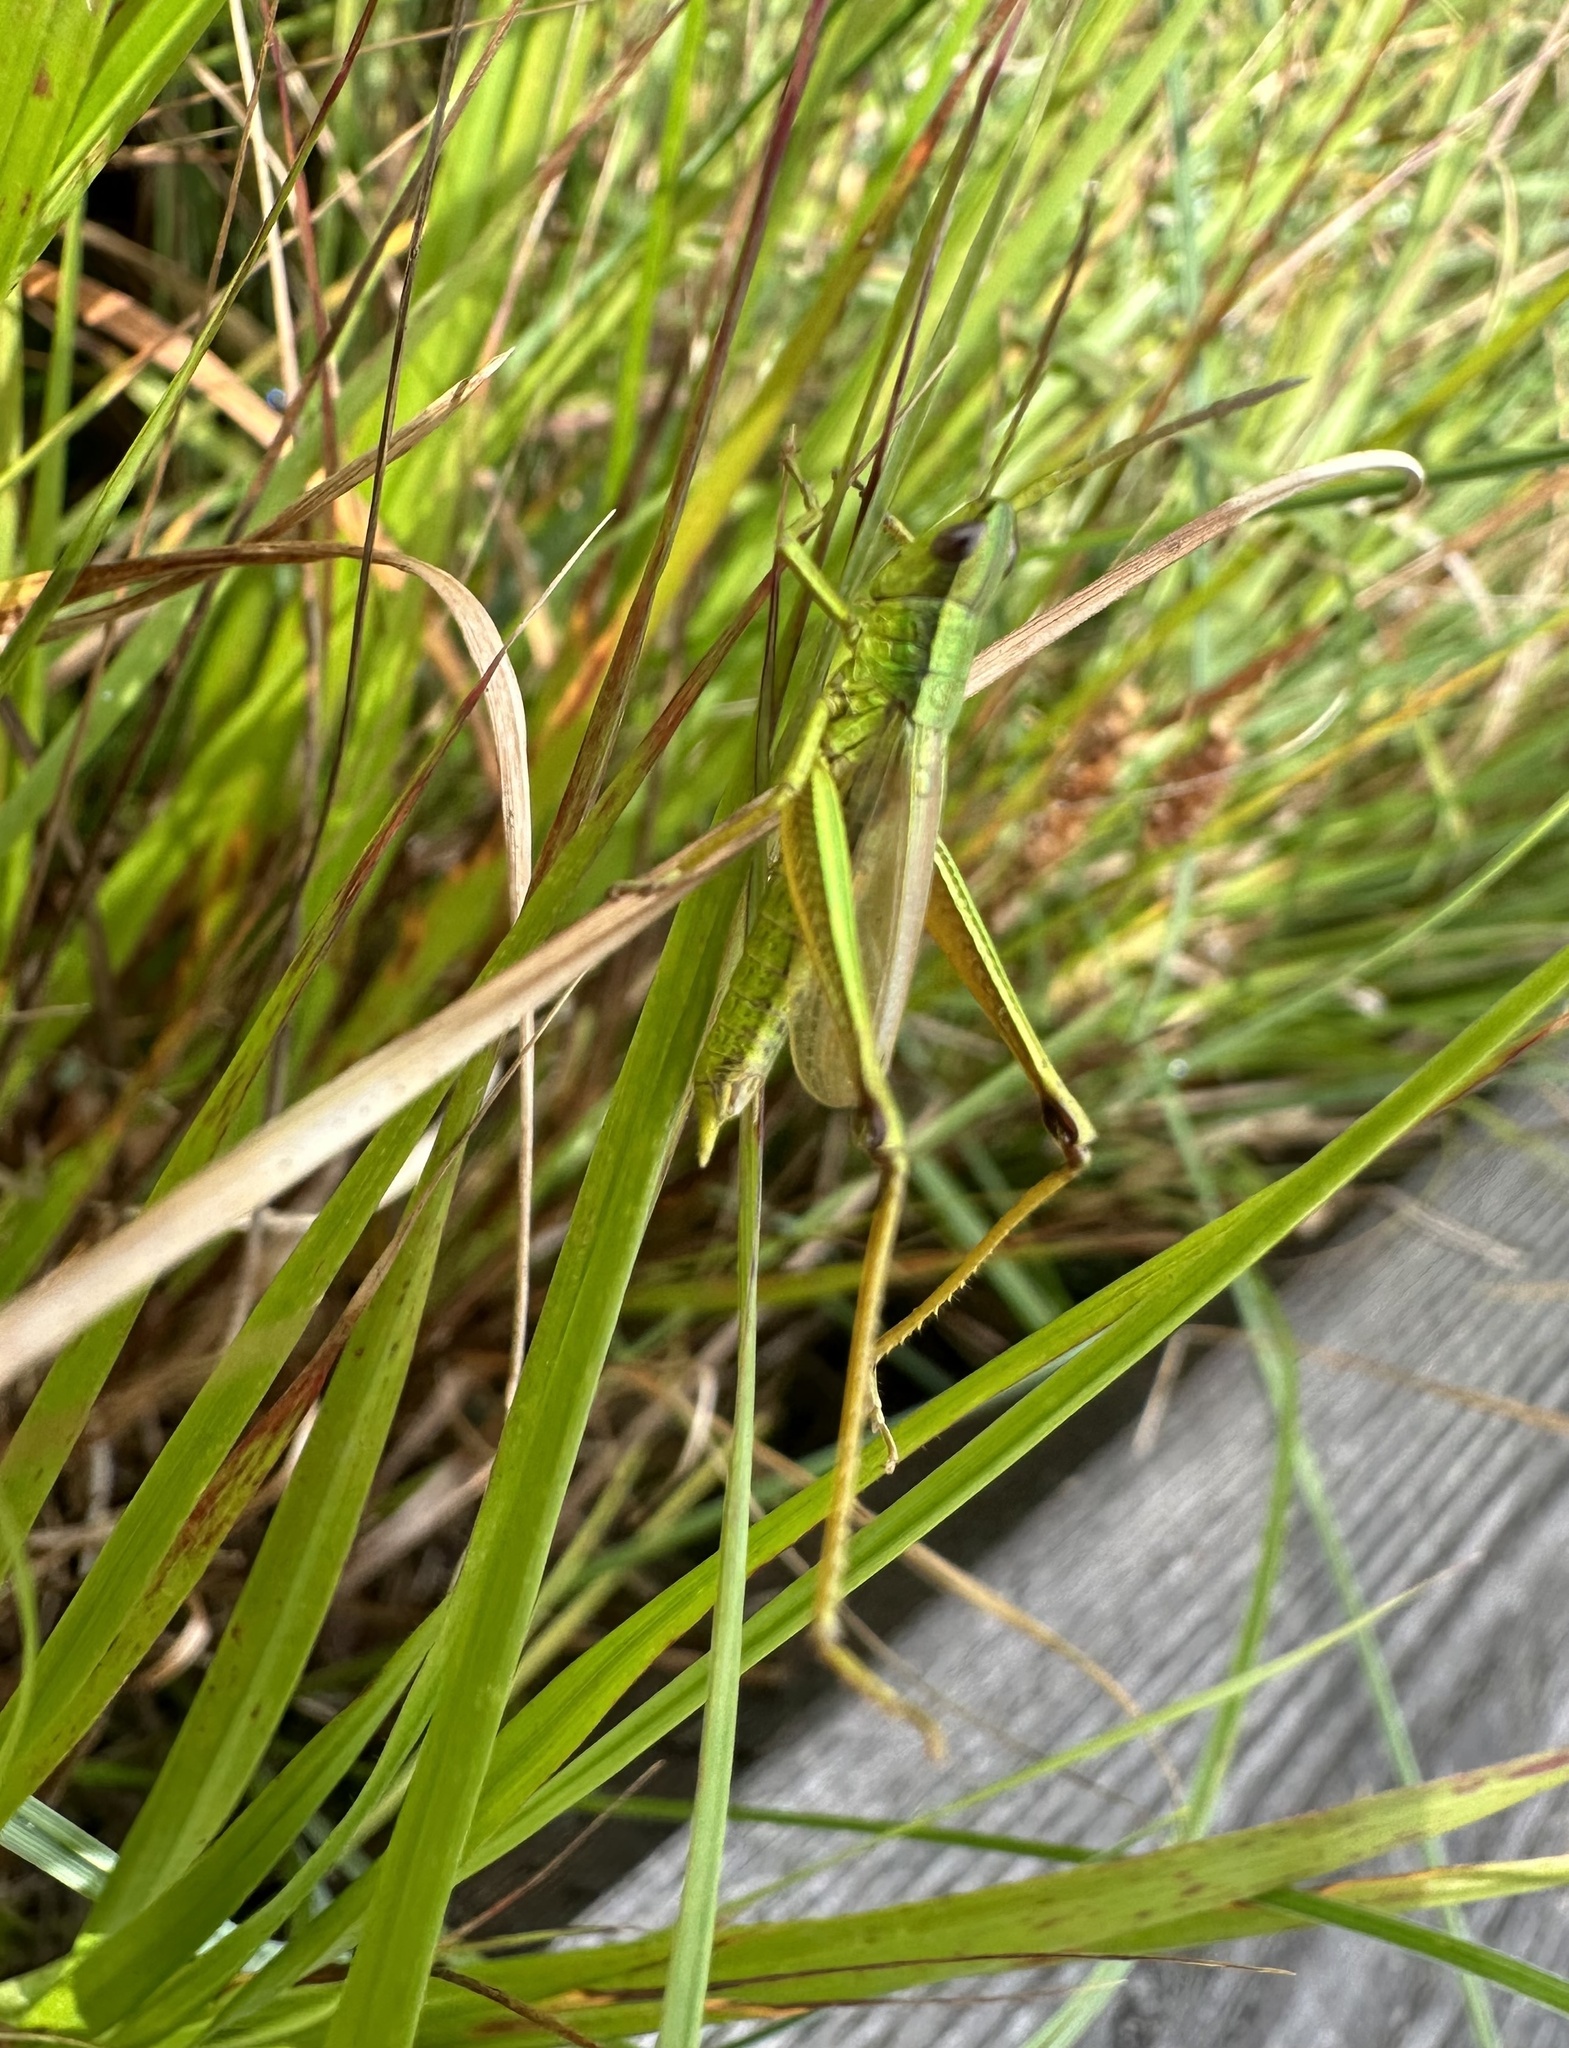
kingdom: Animalia
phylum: Arthropoda
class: Insecta
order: Orthoptera
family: Acrididae
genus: Chrysochraon
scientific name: Chrysochraon dispar
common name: Large gold grasshopper
